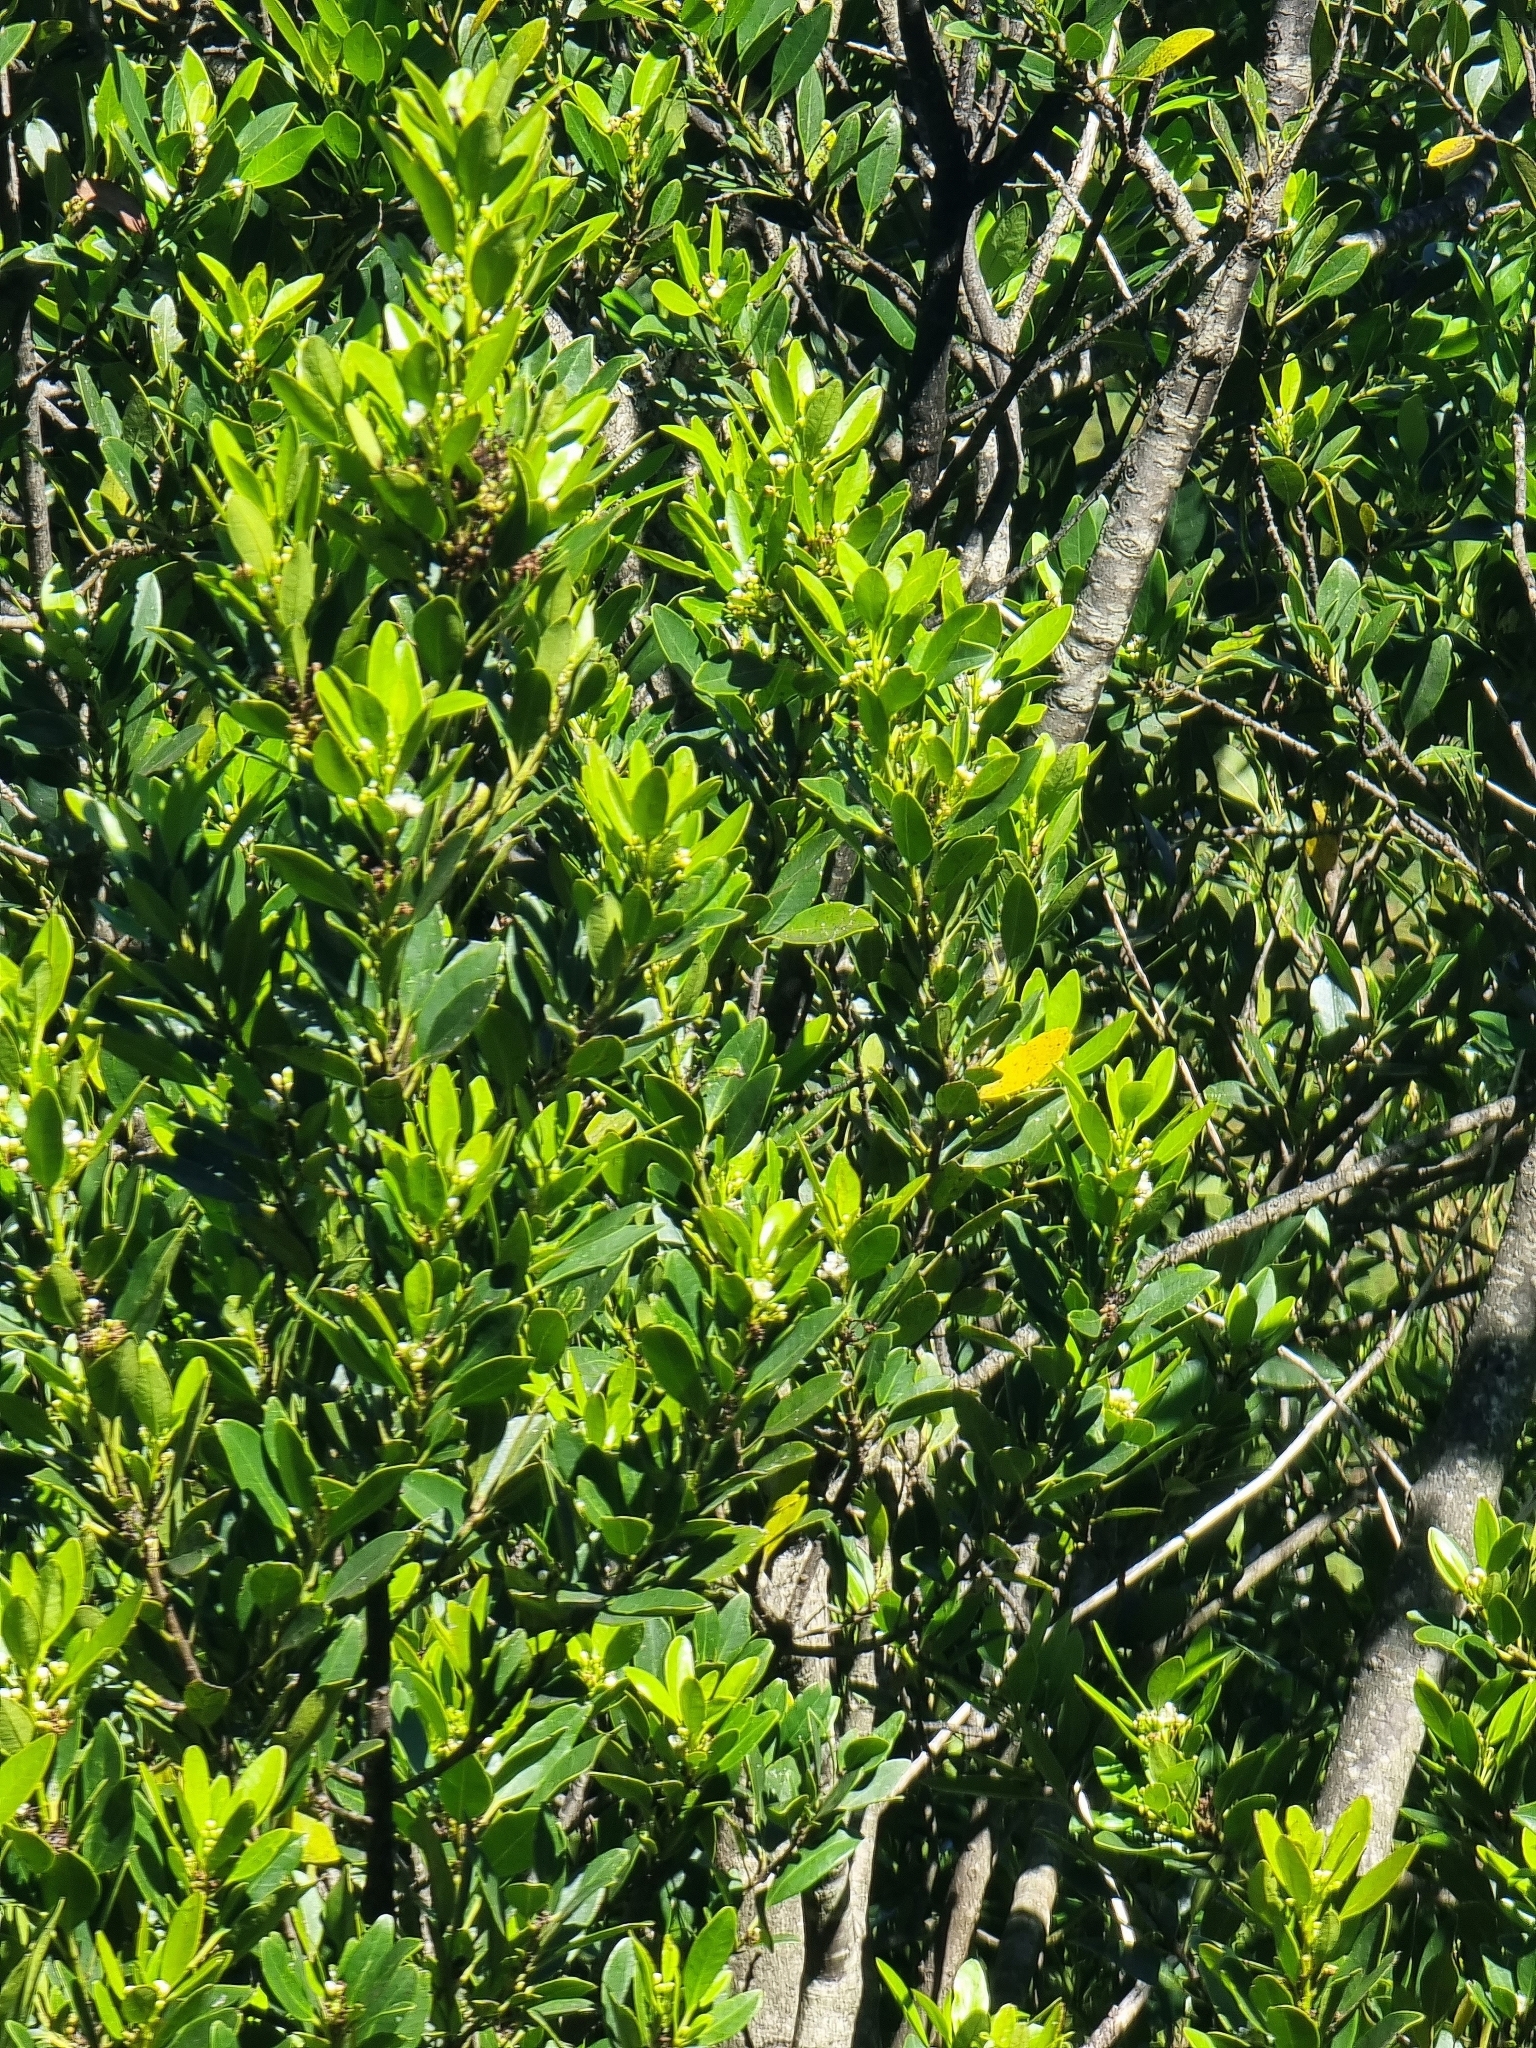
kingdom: Plantae
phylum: Tracheophyta
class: Magnoliopsida
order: Aquifoliales
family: Aquifoliaceae
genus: Ilex
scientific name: Ilex canariensis
